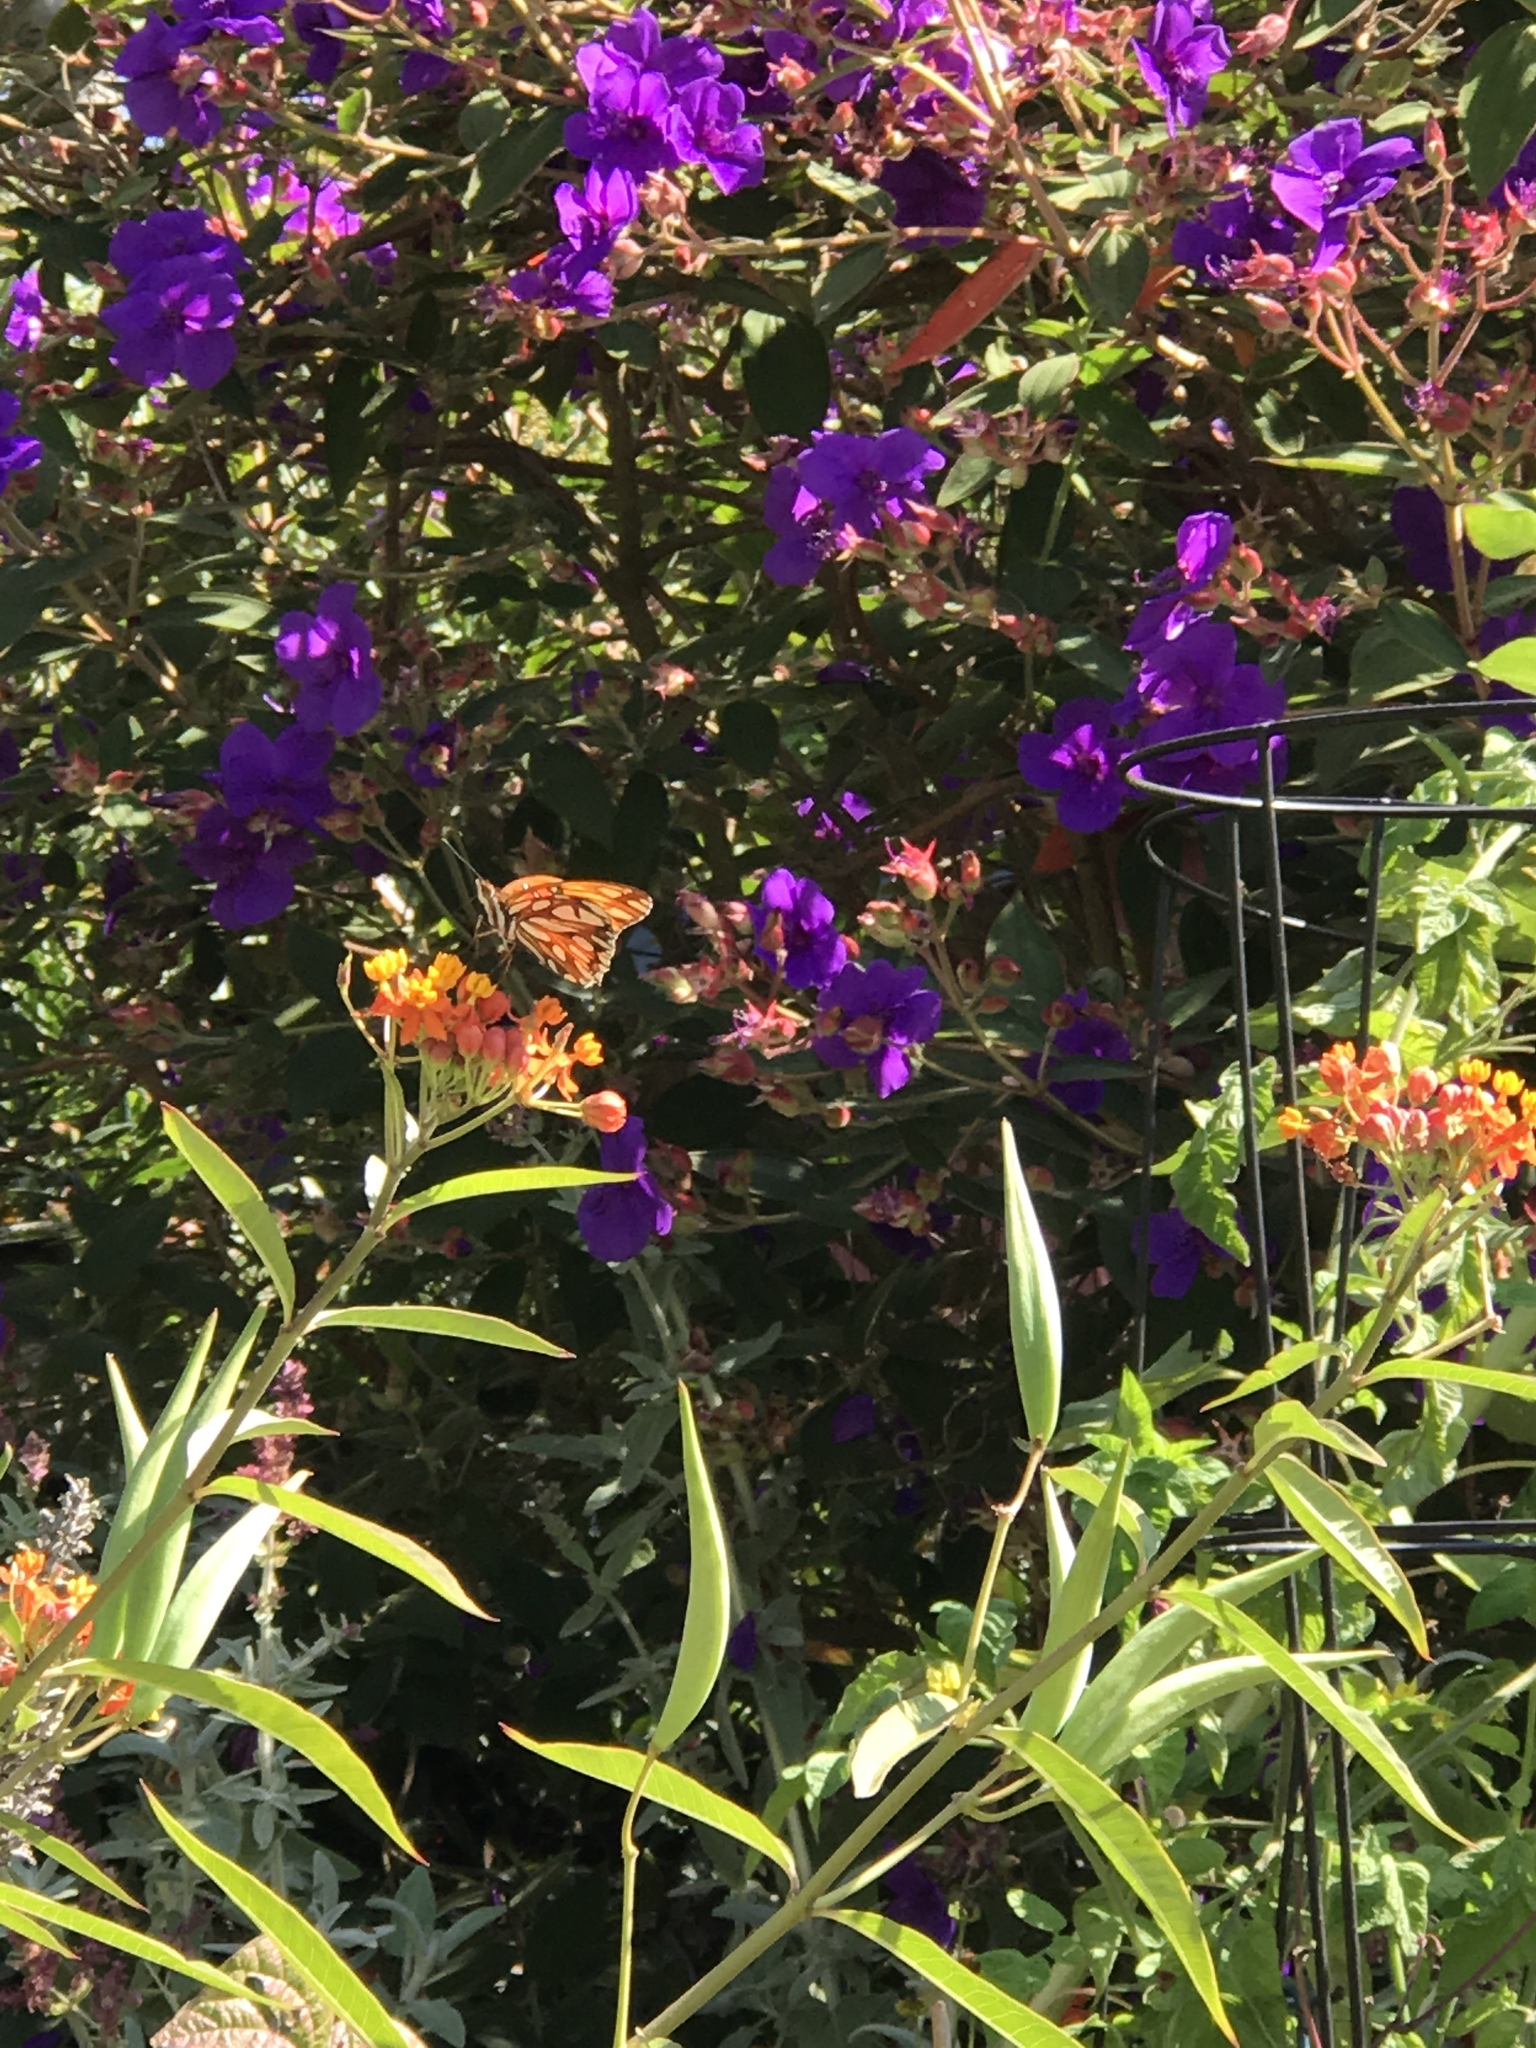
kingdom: Animalia
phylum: Arthropoda
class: Insecta
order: Lepidoptera
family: Nymphalidae
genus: Dione
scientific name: Dione vanillae
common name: Gulf fritillary
